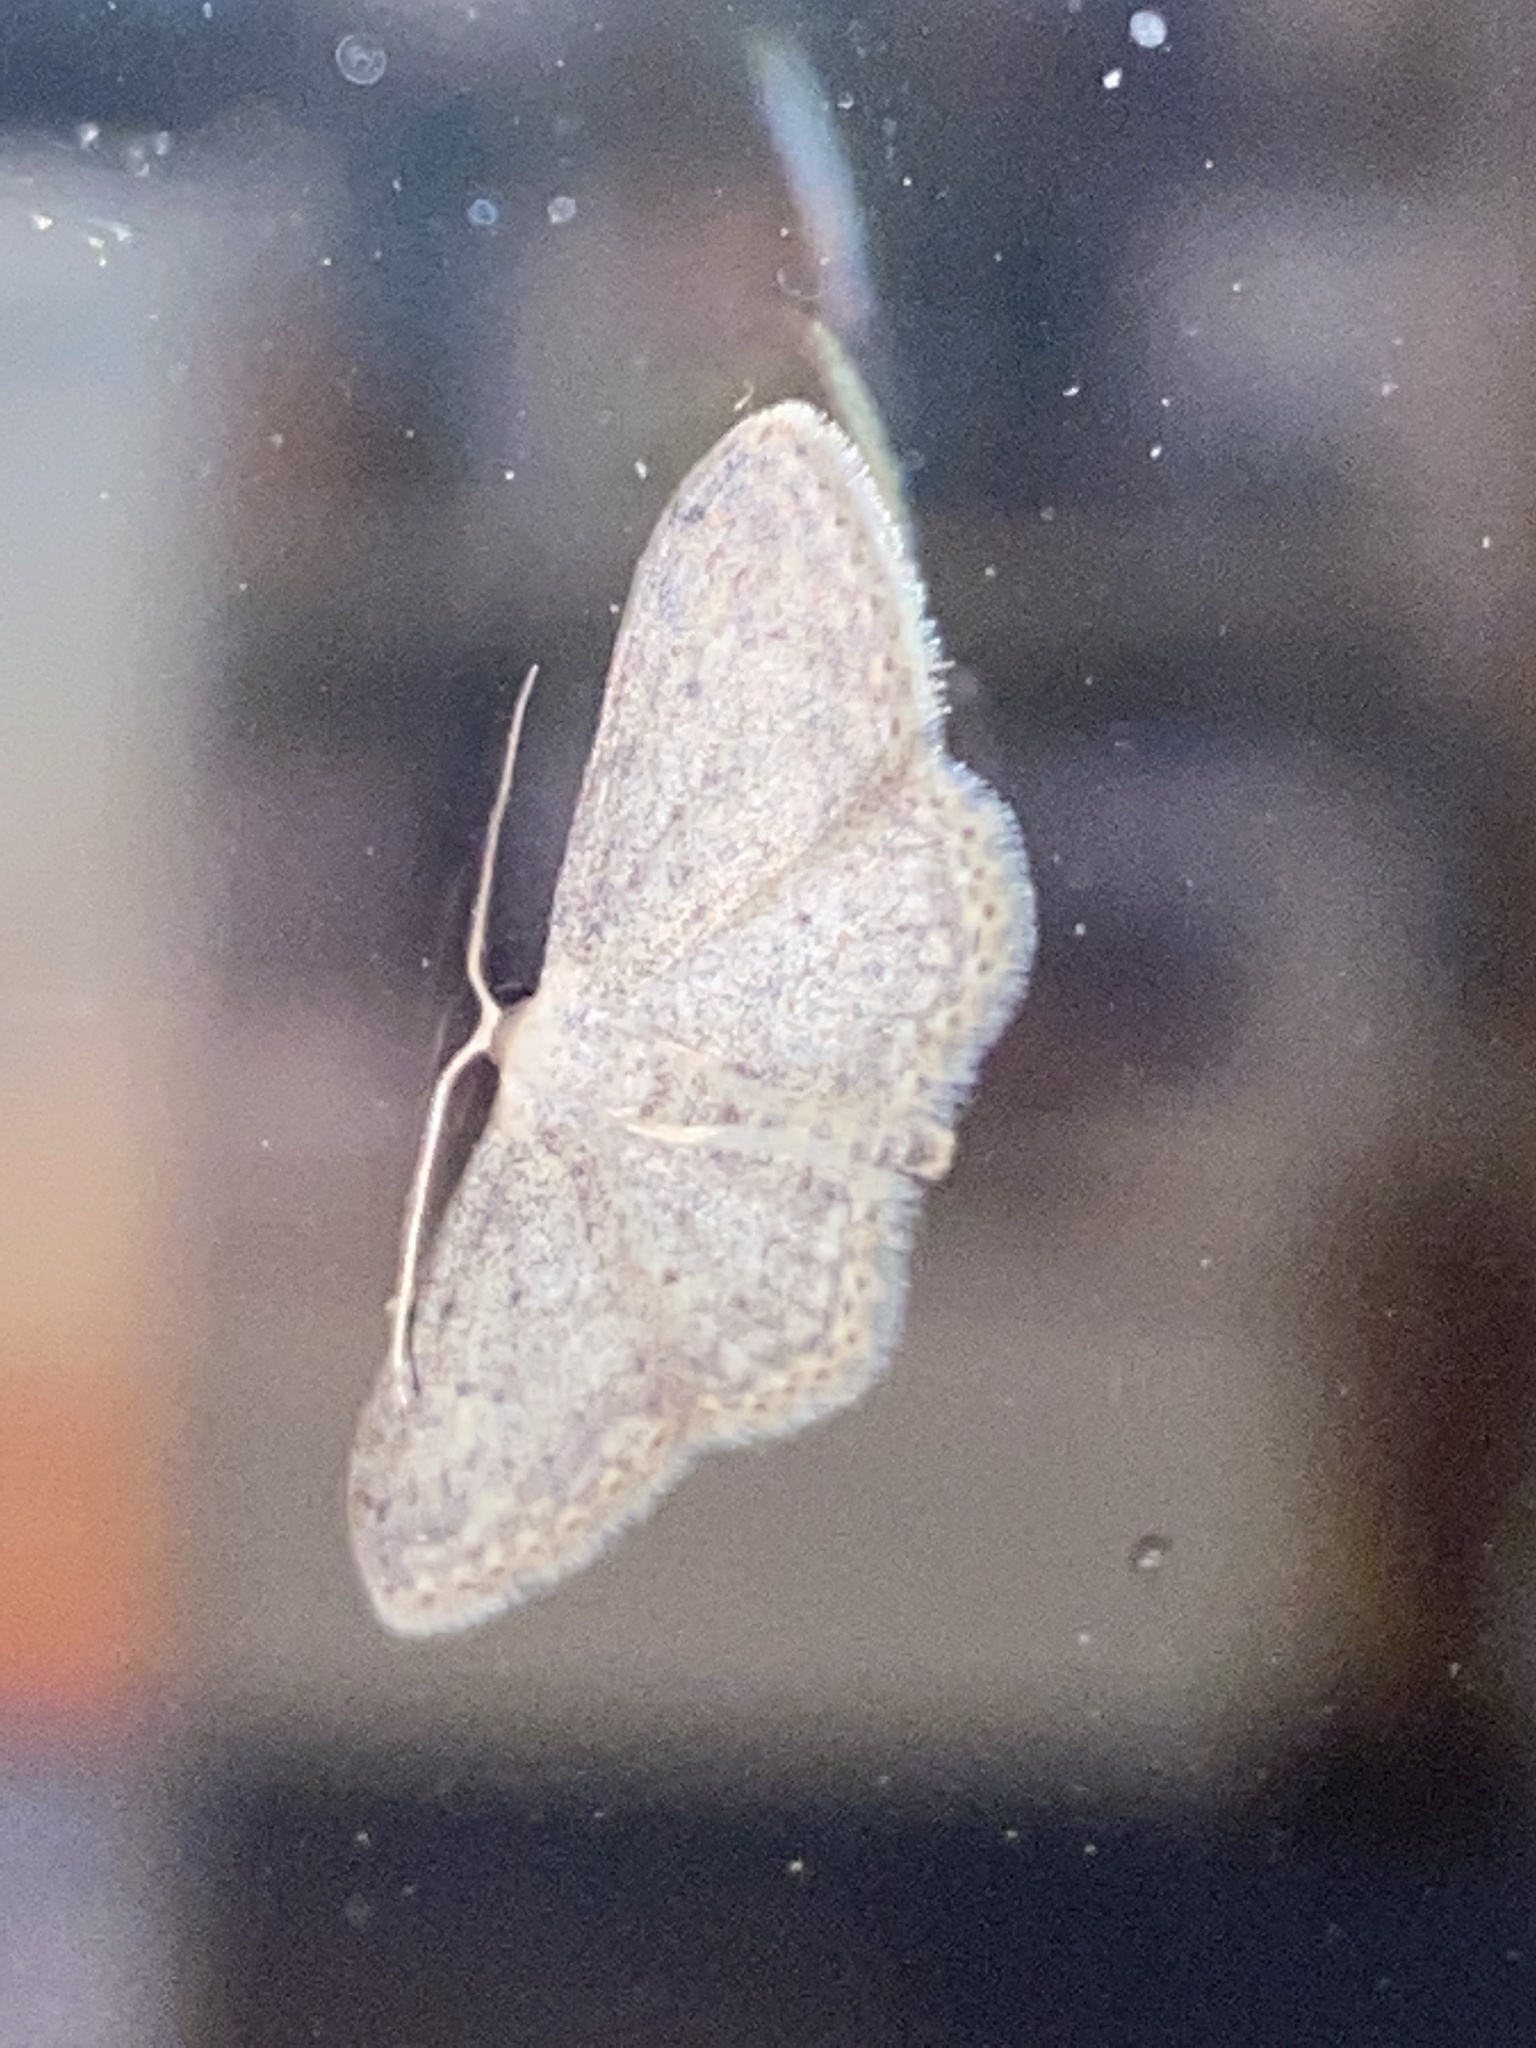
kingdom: Animalia
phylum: Arthropoda
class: Insecta
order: Lepidoptera
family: Geometridae
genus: Idaea
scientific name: Idaea seriata
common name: Small dusty wave
